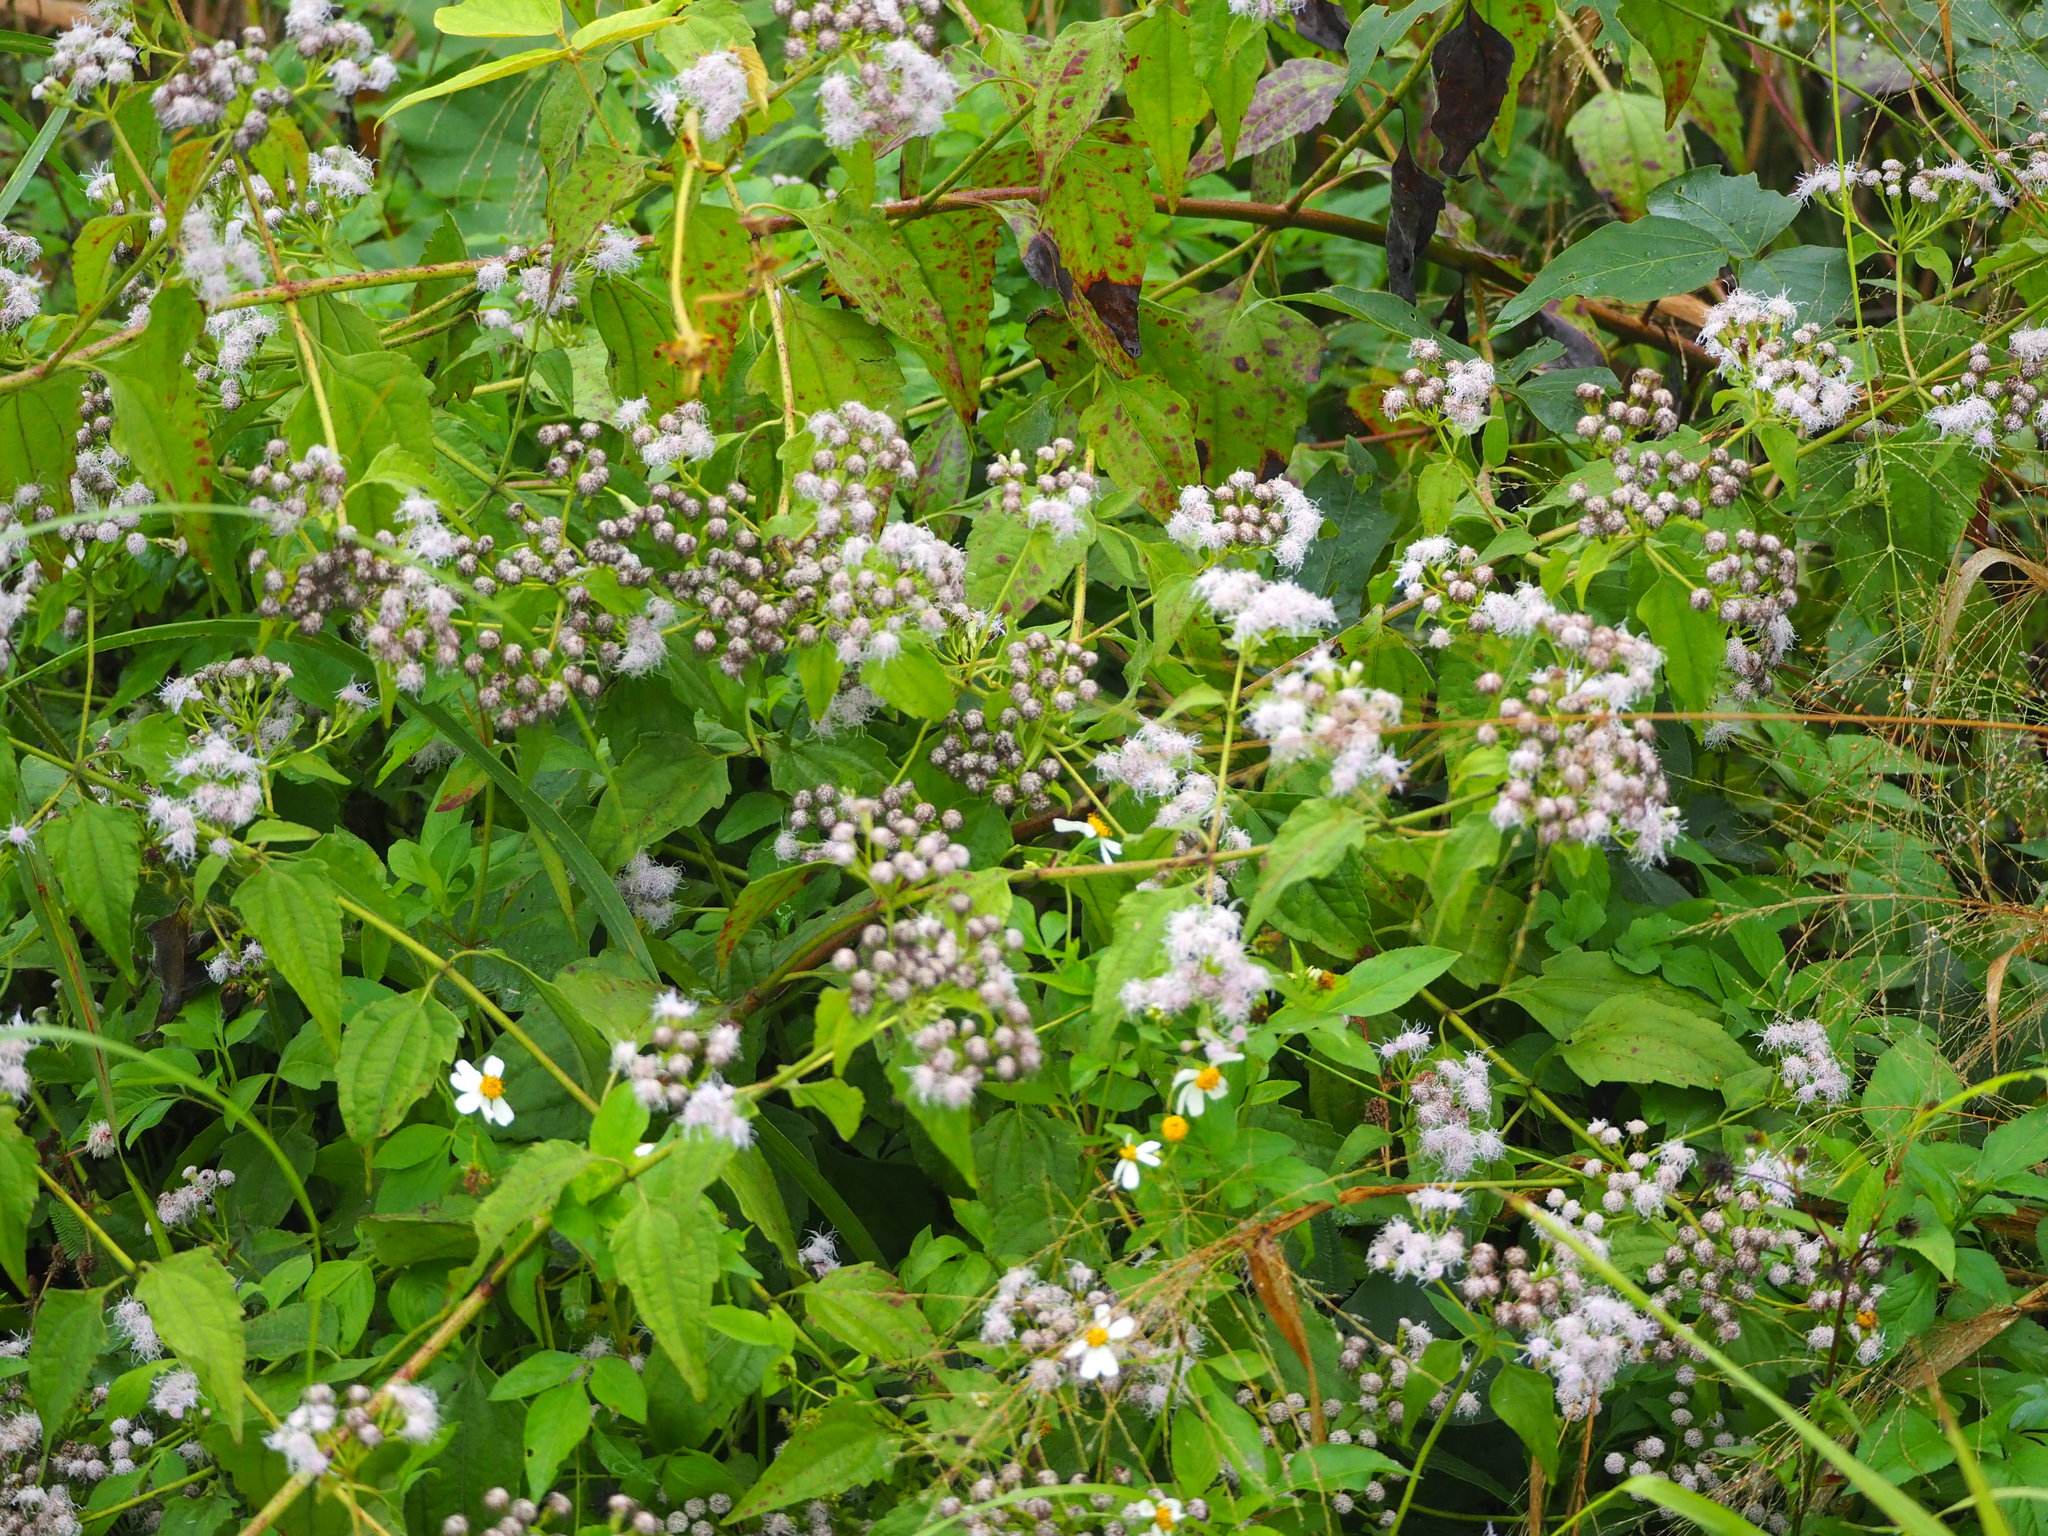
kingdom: Plantae
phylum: Tracheophyta
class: Magnoliopsida
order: Asterales
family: Asteraceae
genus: Chromolaena
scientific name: Chromolaena odorata
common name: Siamweed
